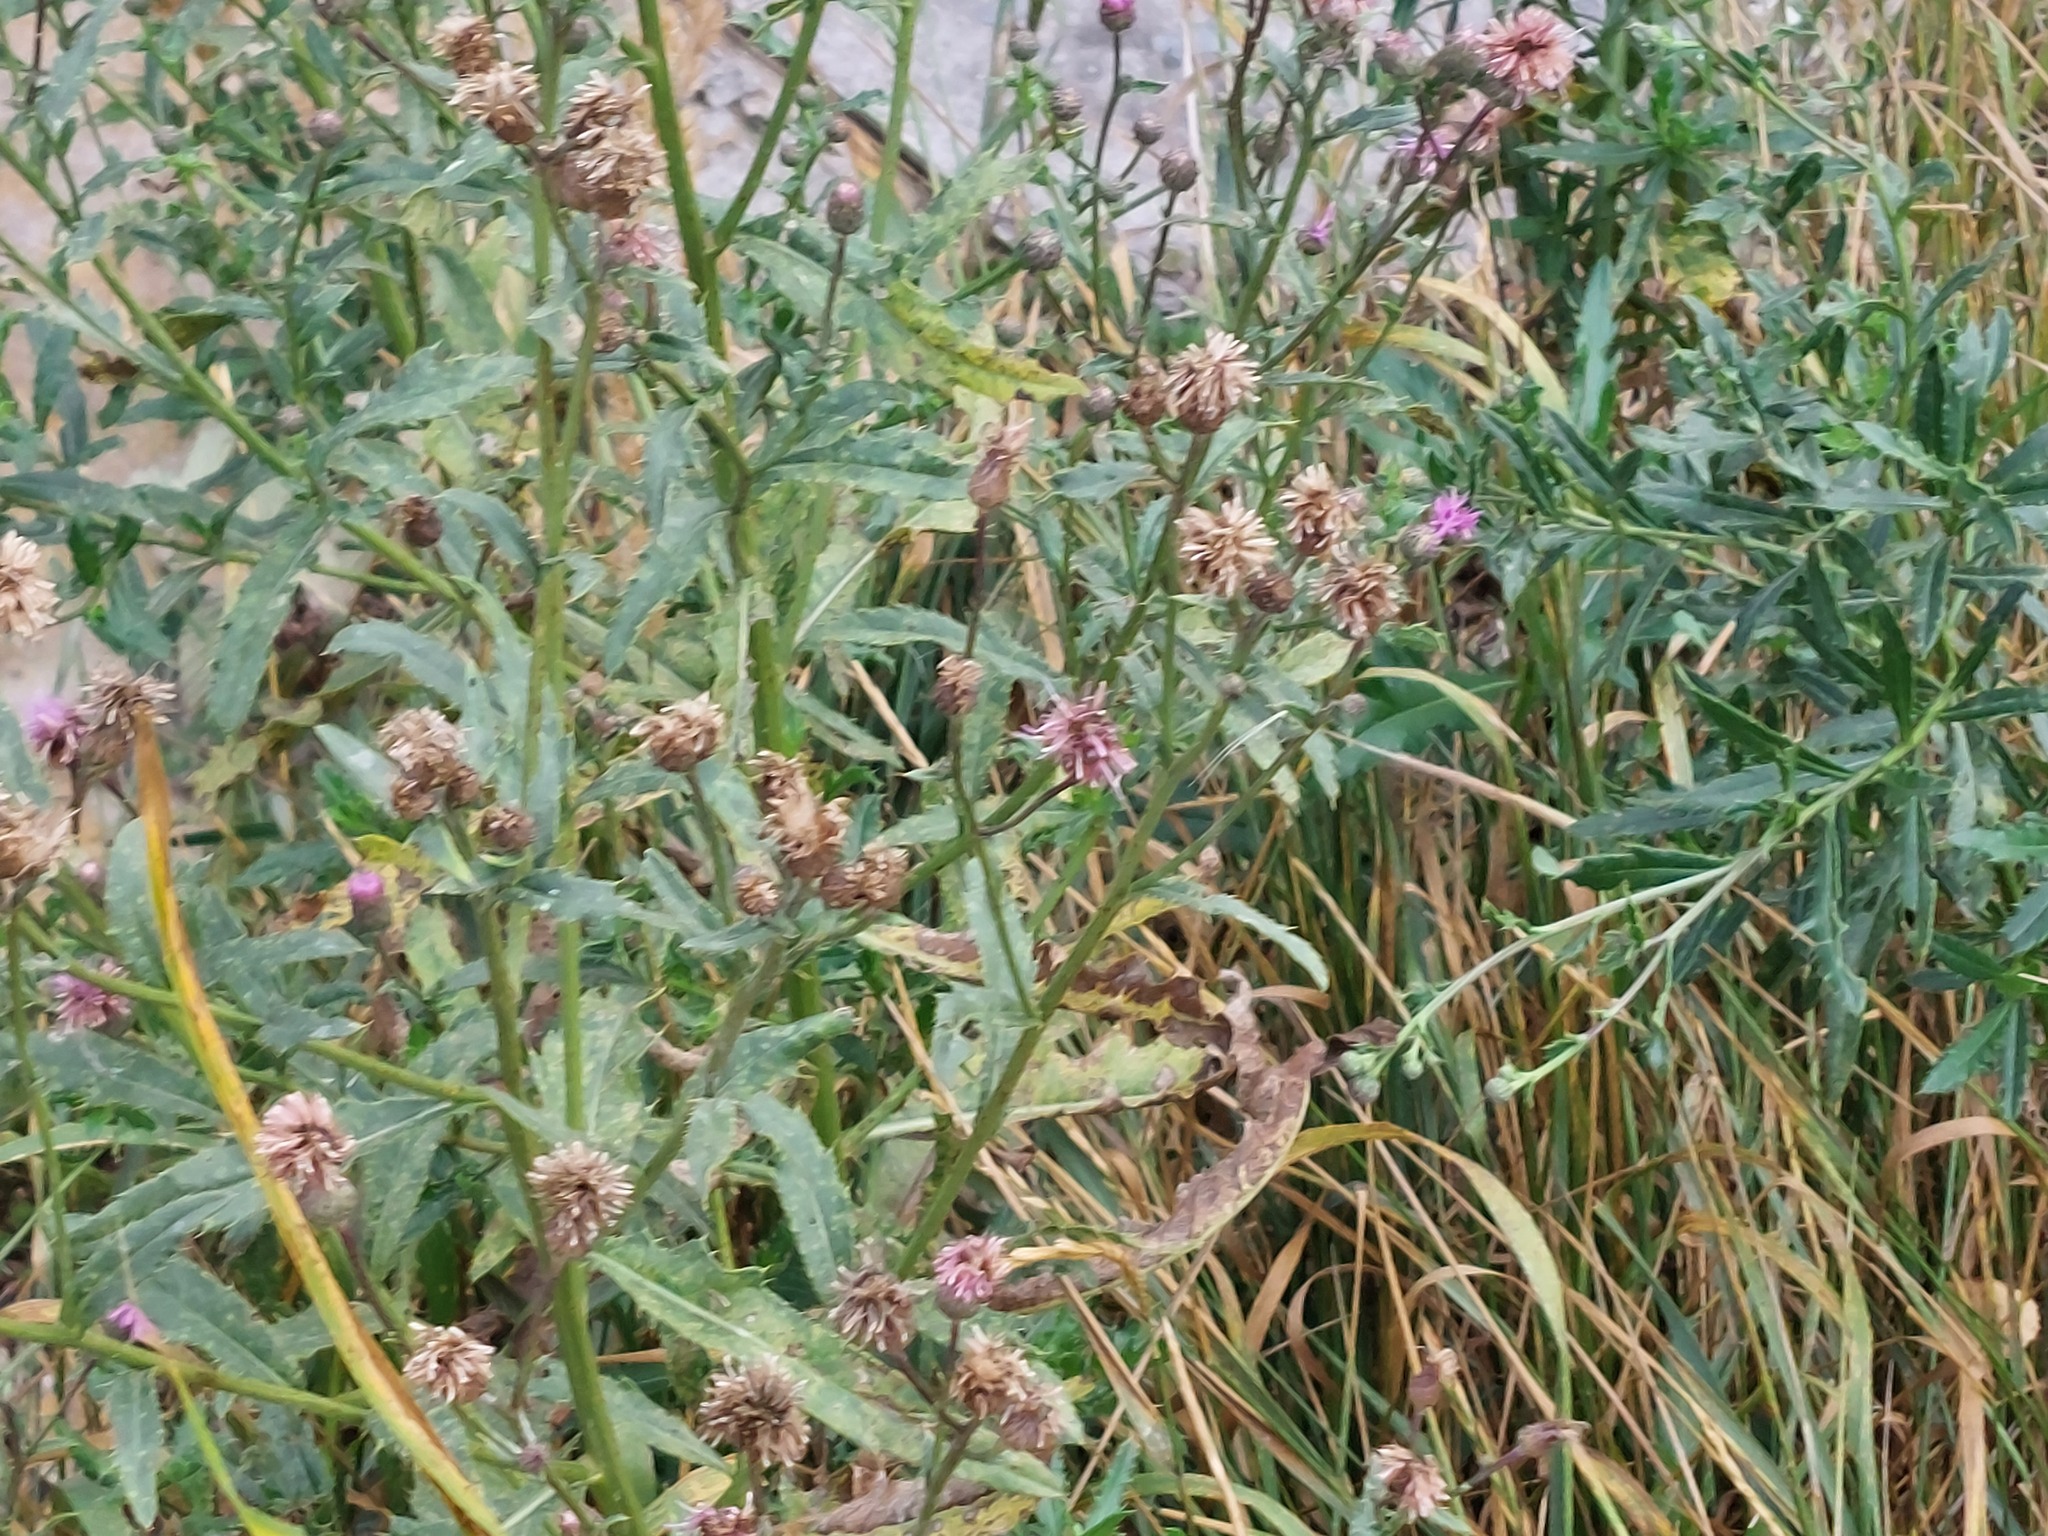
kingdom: Plantae
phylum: Tracheophyta
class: Magnoliopsida
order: Asterales
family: Asteraceae
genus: Cirsium
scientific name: Cirsium arvense
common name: Creeping thistle
